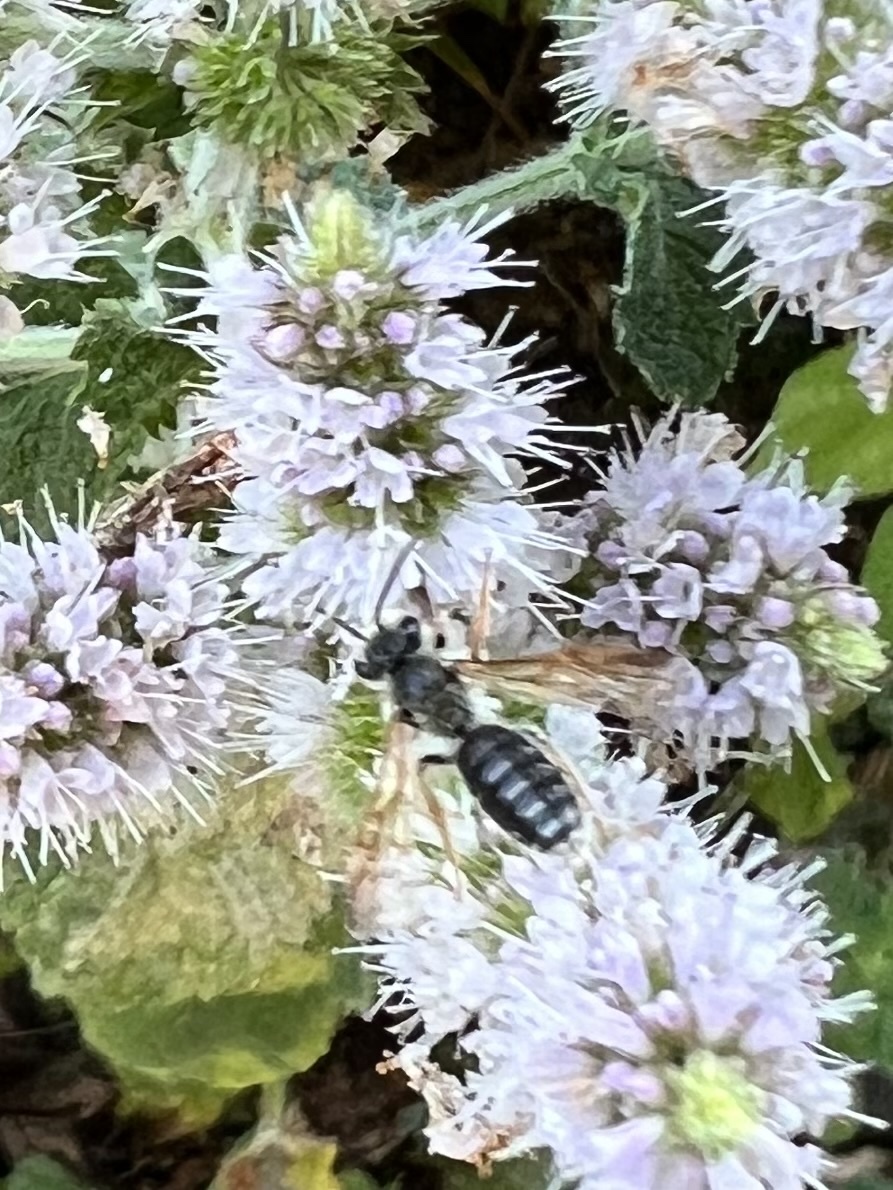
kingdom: Animalia
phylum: Arthropoda
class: Insecta
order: Hymenoptera
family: Andrenidae
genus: Andrena
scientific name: Andrena prunorum
